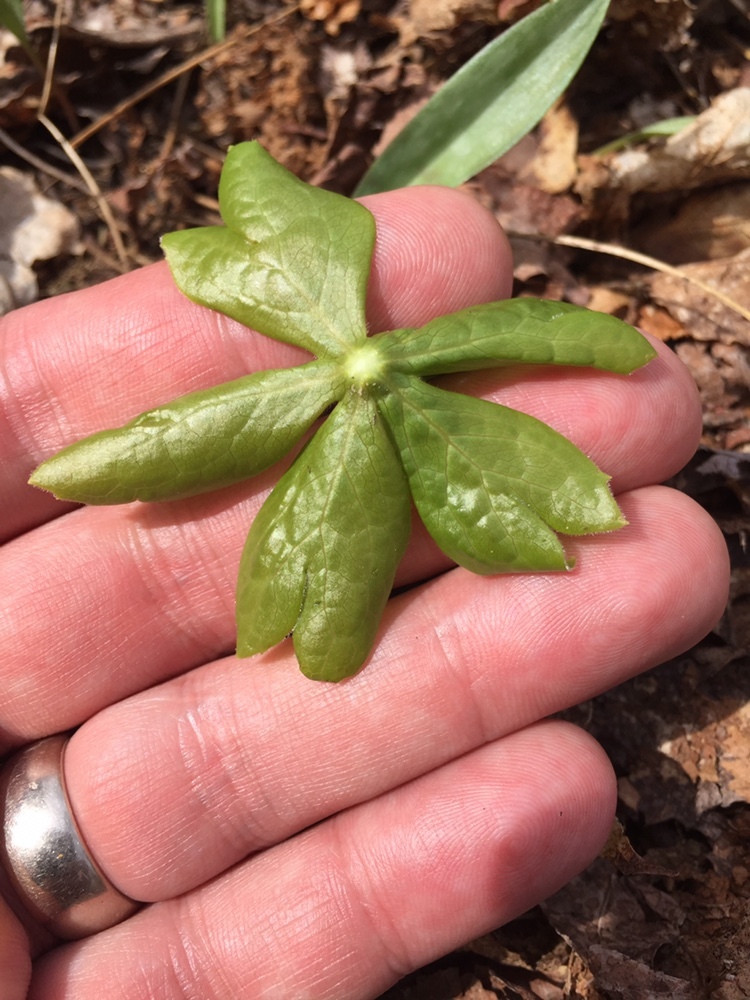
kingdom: Plantae
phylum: Tracheophyta
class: Magnoliopsida
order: Ranunculales
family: Berberidaceae
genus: Podophyllum
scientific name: Podophyllum peltatum
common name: Wild mandrake
